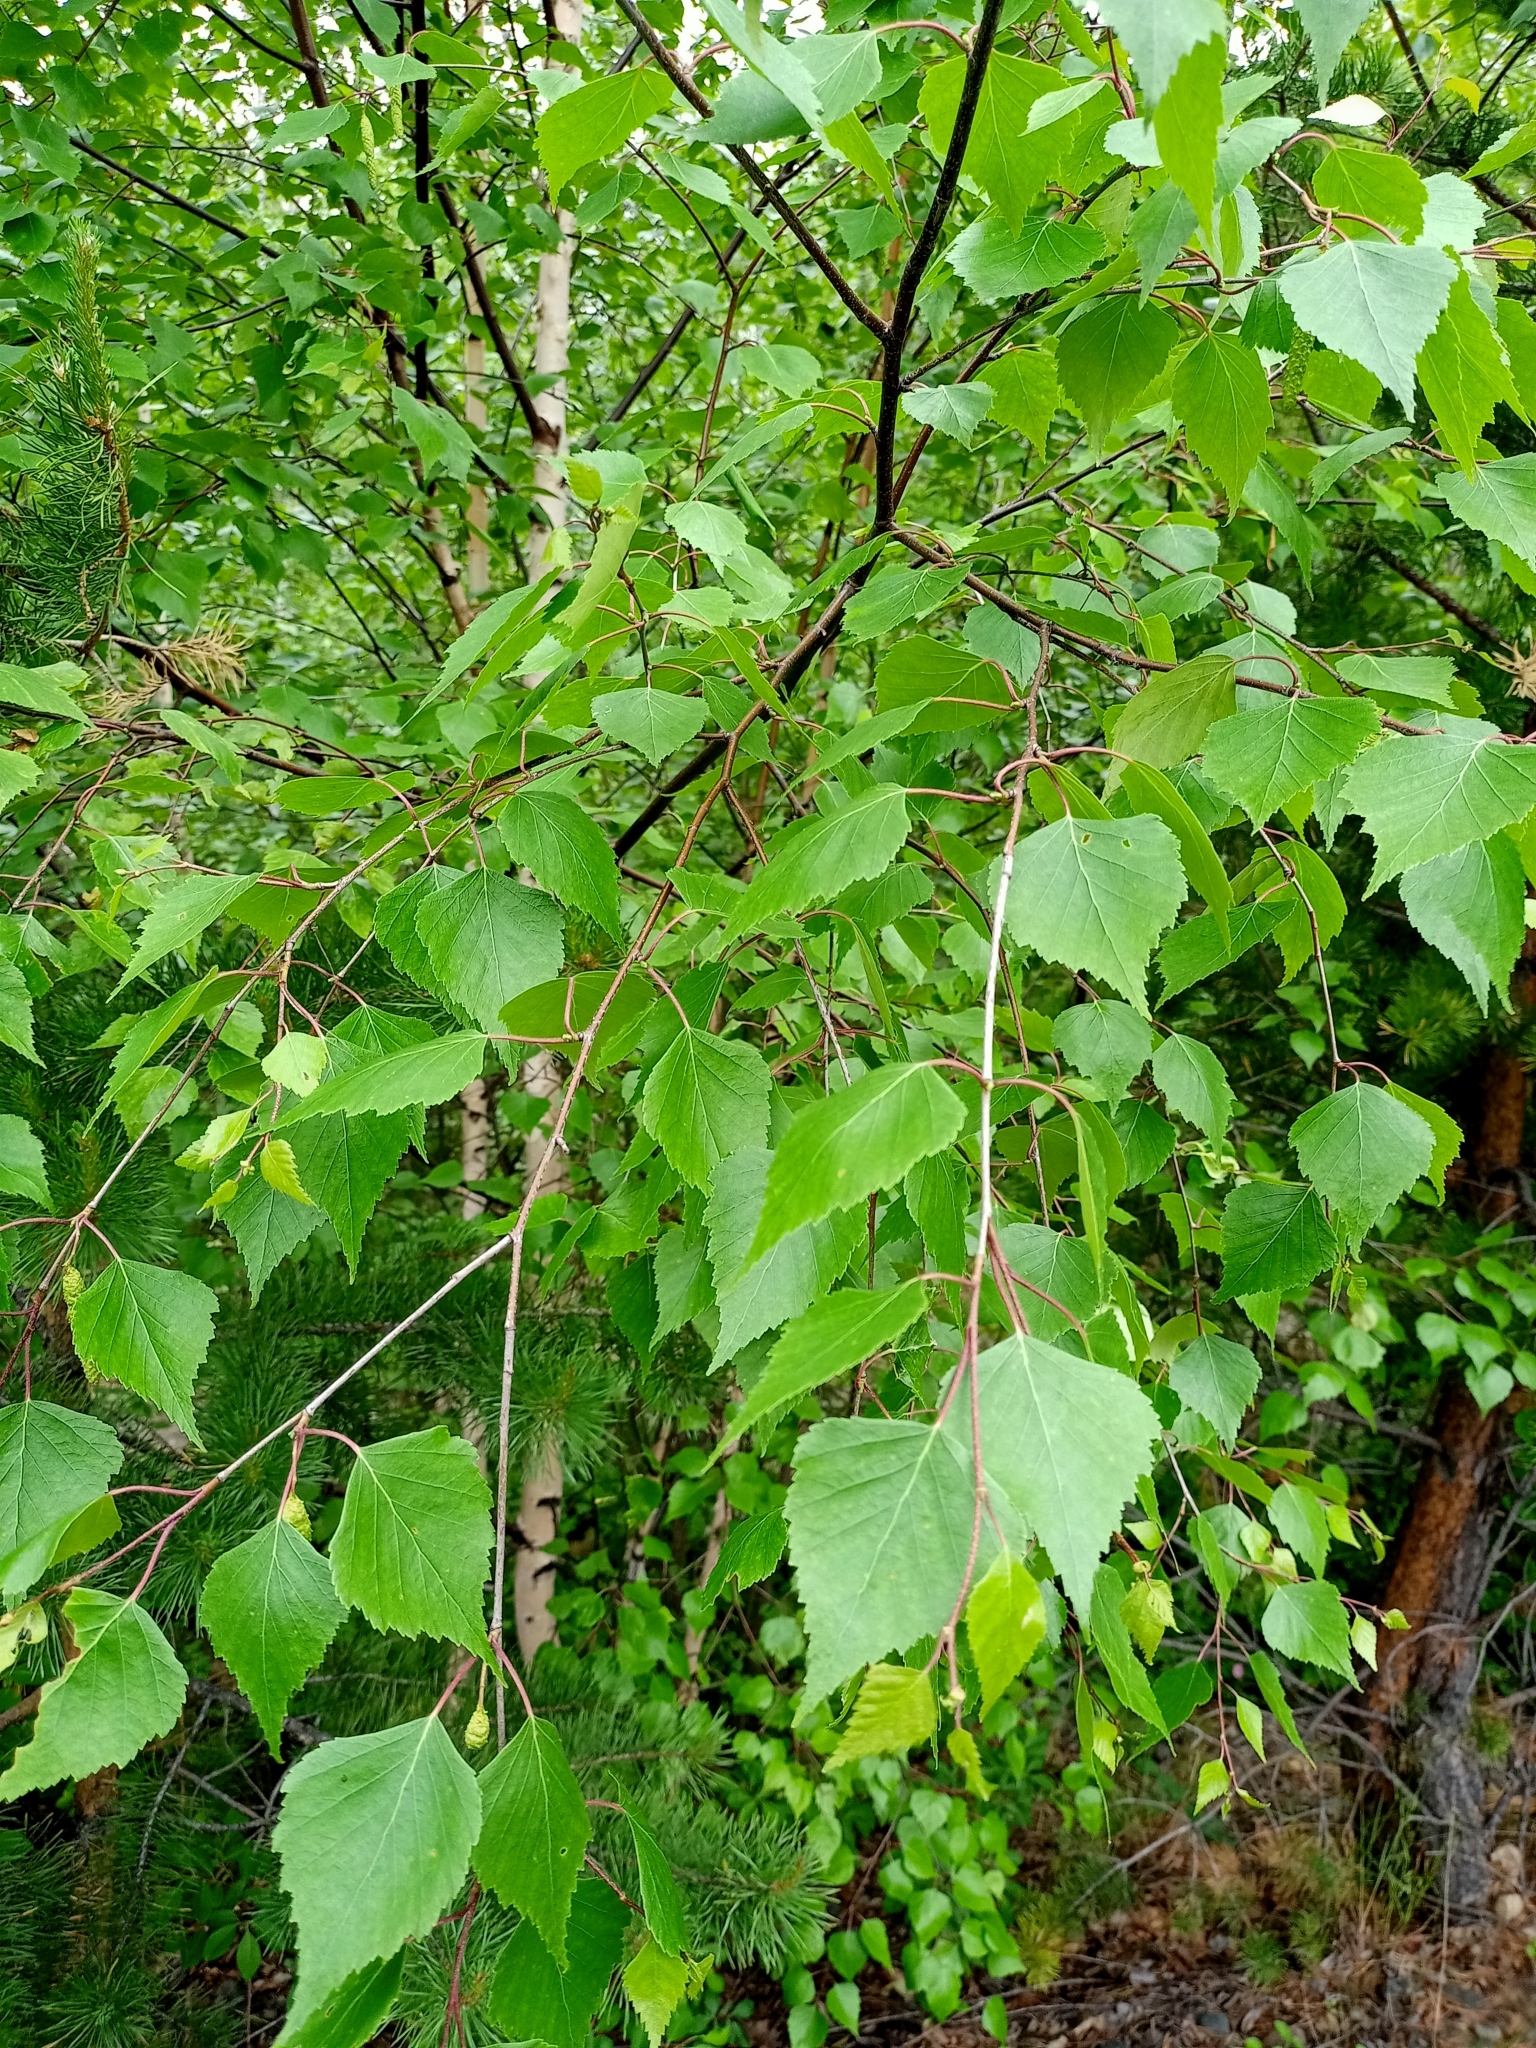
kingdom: Plantae
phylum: Tracheophyta
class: Magnoliopsida
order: Fagales
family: Betulaceae
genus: Betula
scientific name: Betula pendula
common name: Silver birch
